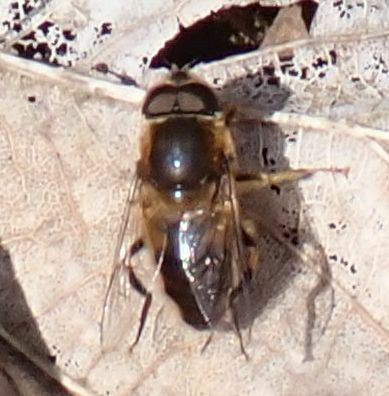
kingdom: Animalia
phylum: Arthropoda
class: Insecta
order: Diptera
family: Syrphidae
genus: Eristalis
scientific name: Eristalis pertinax
